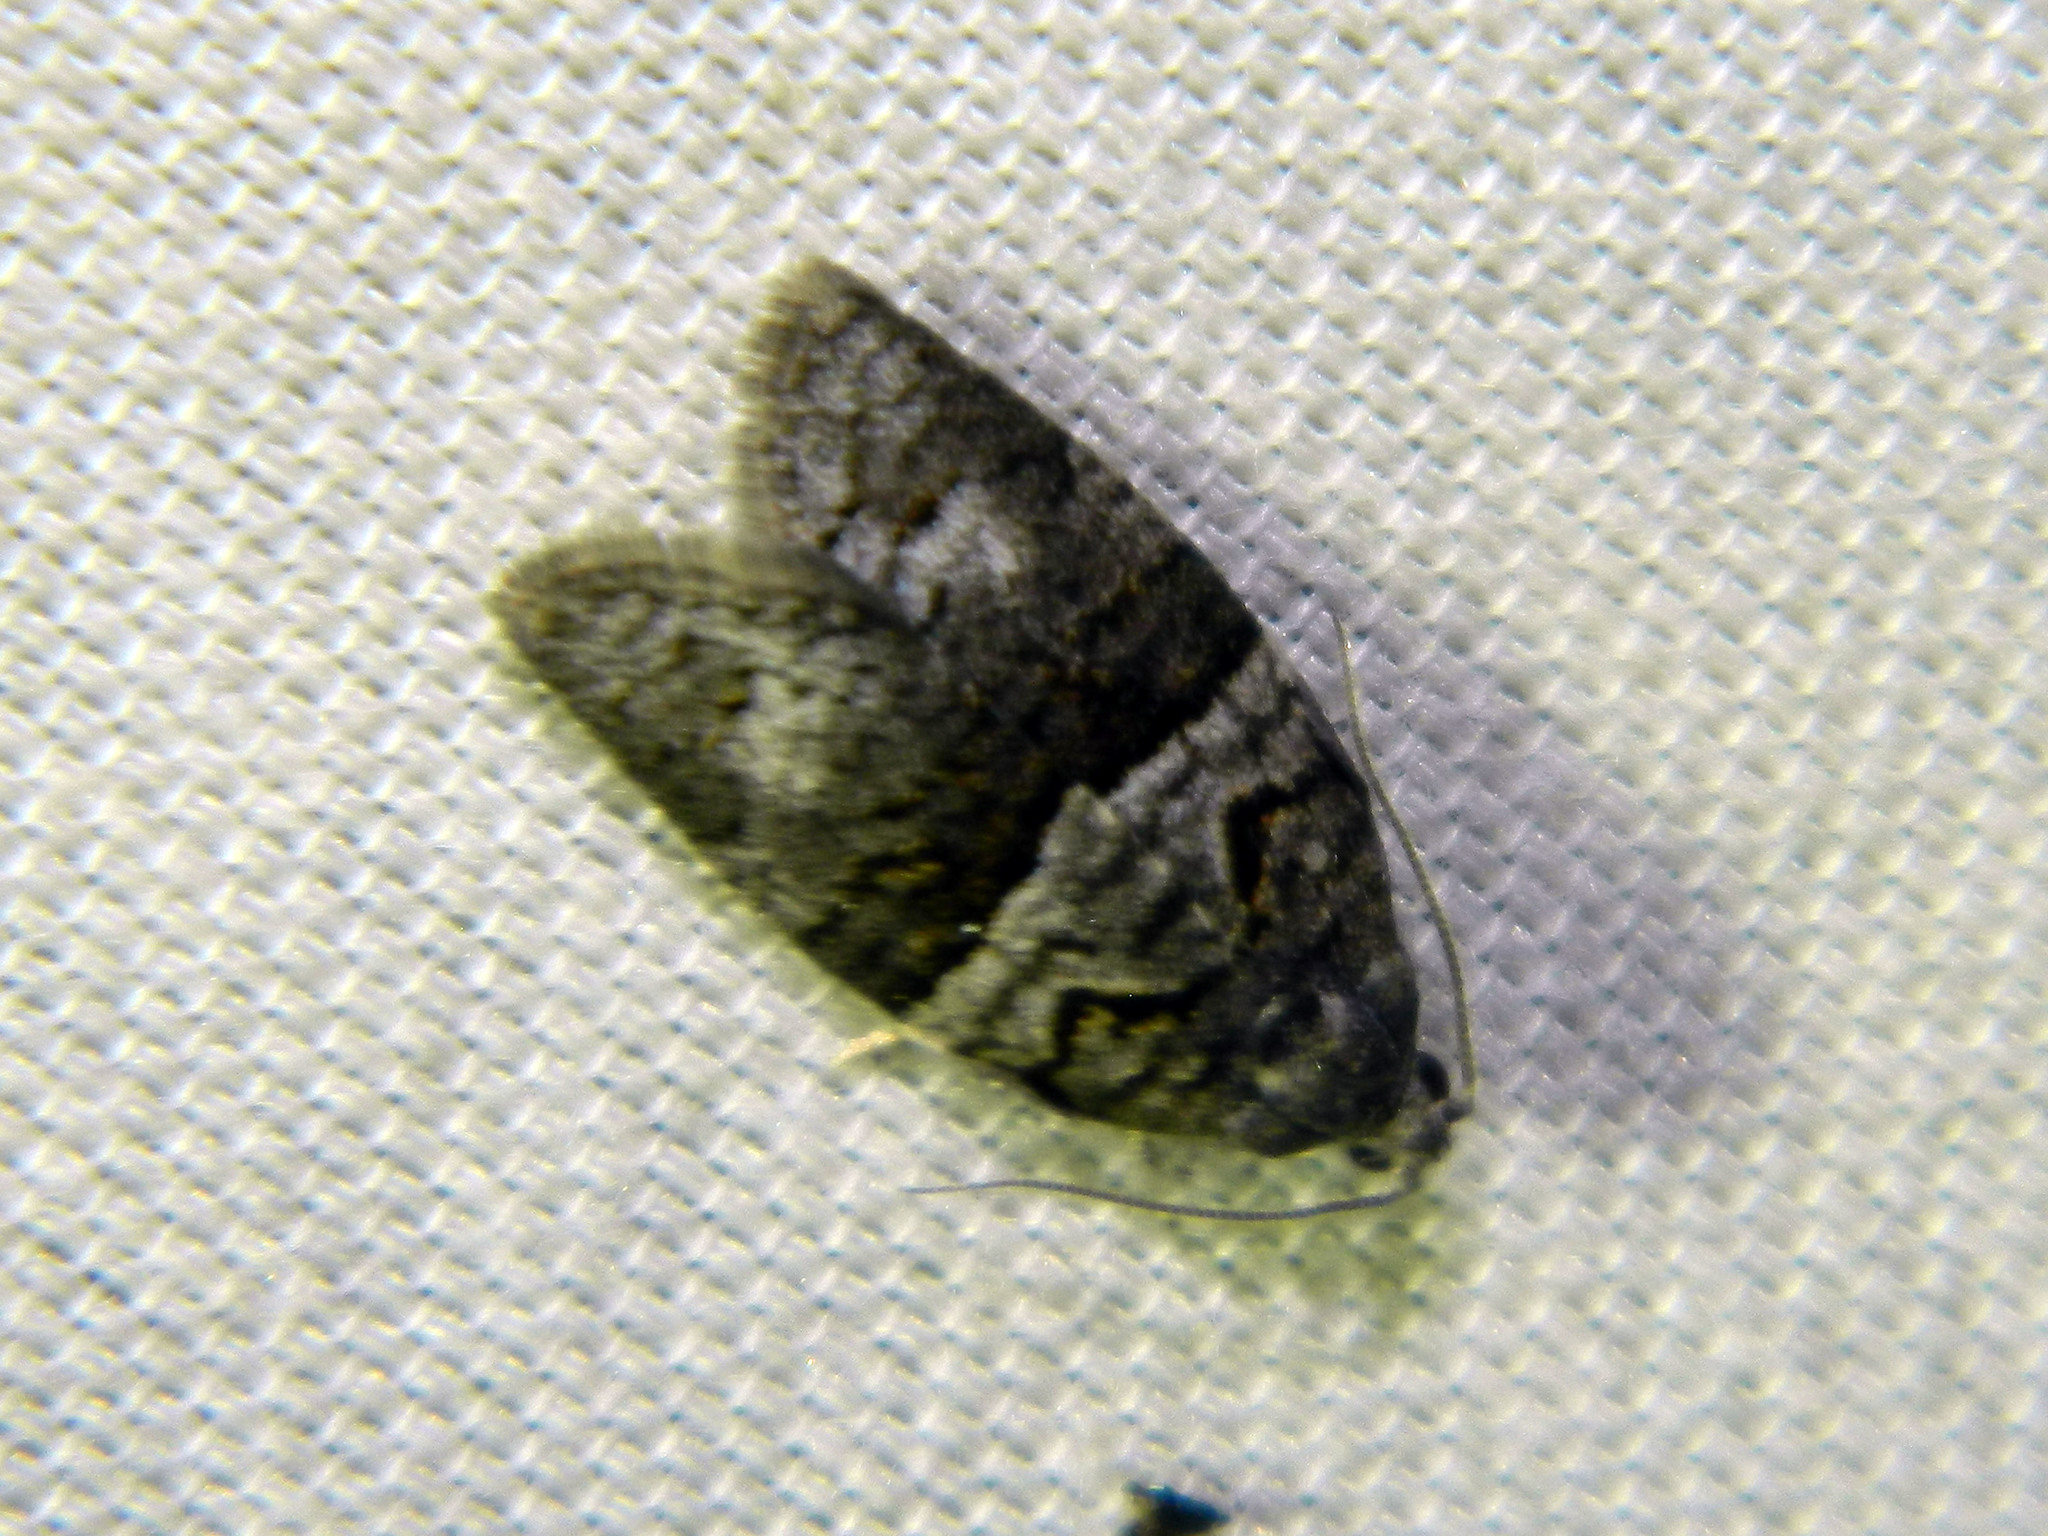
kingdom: Animalia
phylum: Arthropoda
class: Insecta
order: Lepidoptera
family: Tortricidae
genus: Syndemis
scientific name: Syndemis afflictana
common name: Gray leafroller moth
